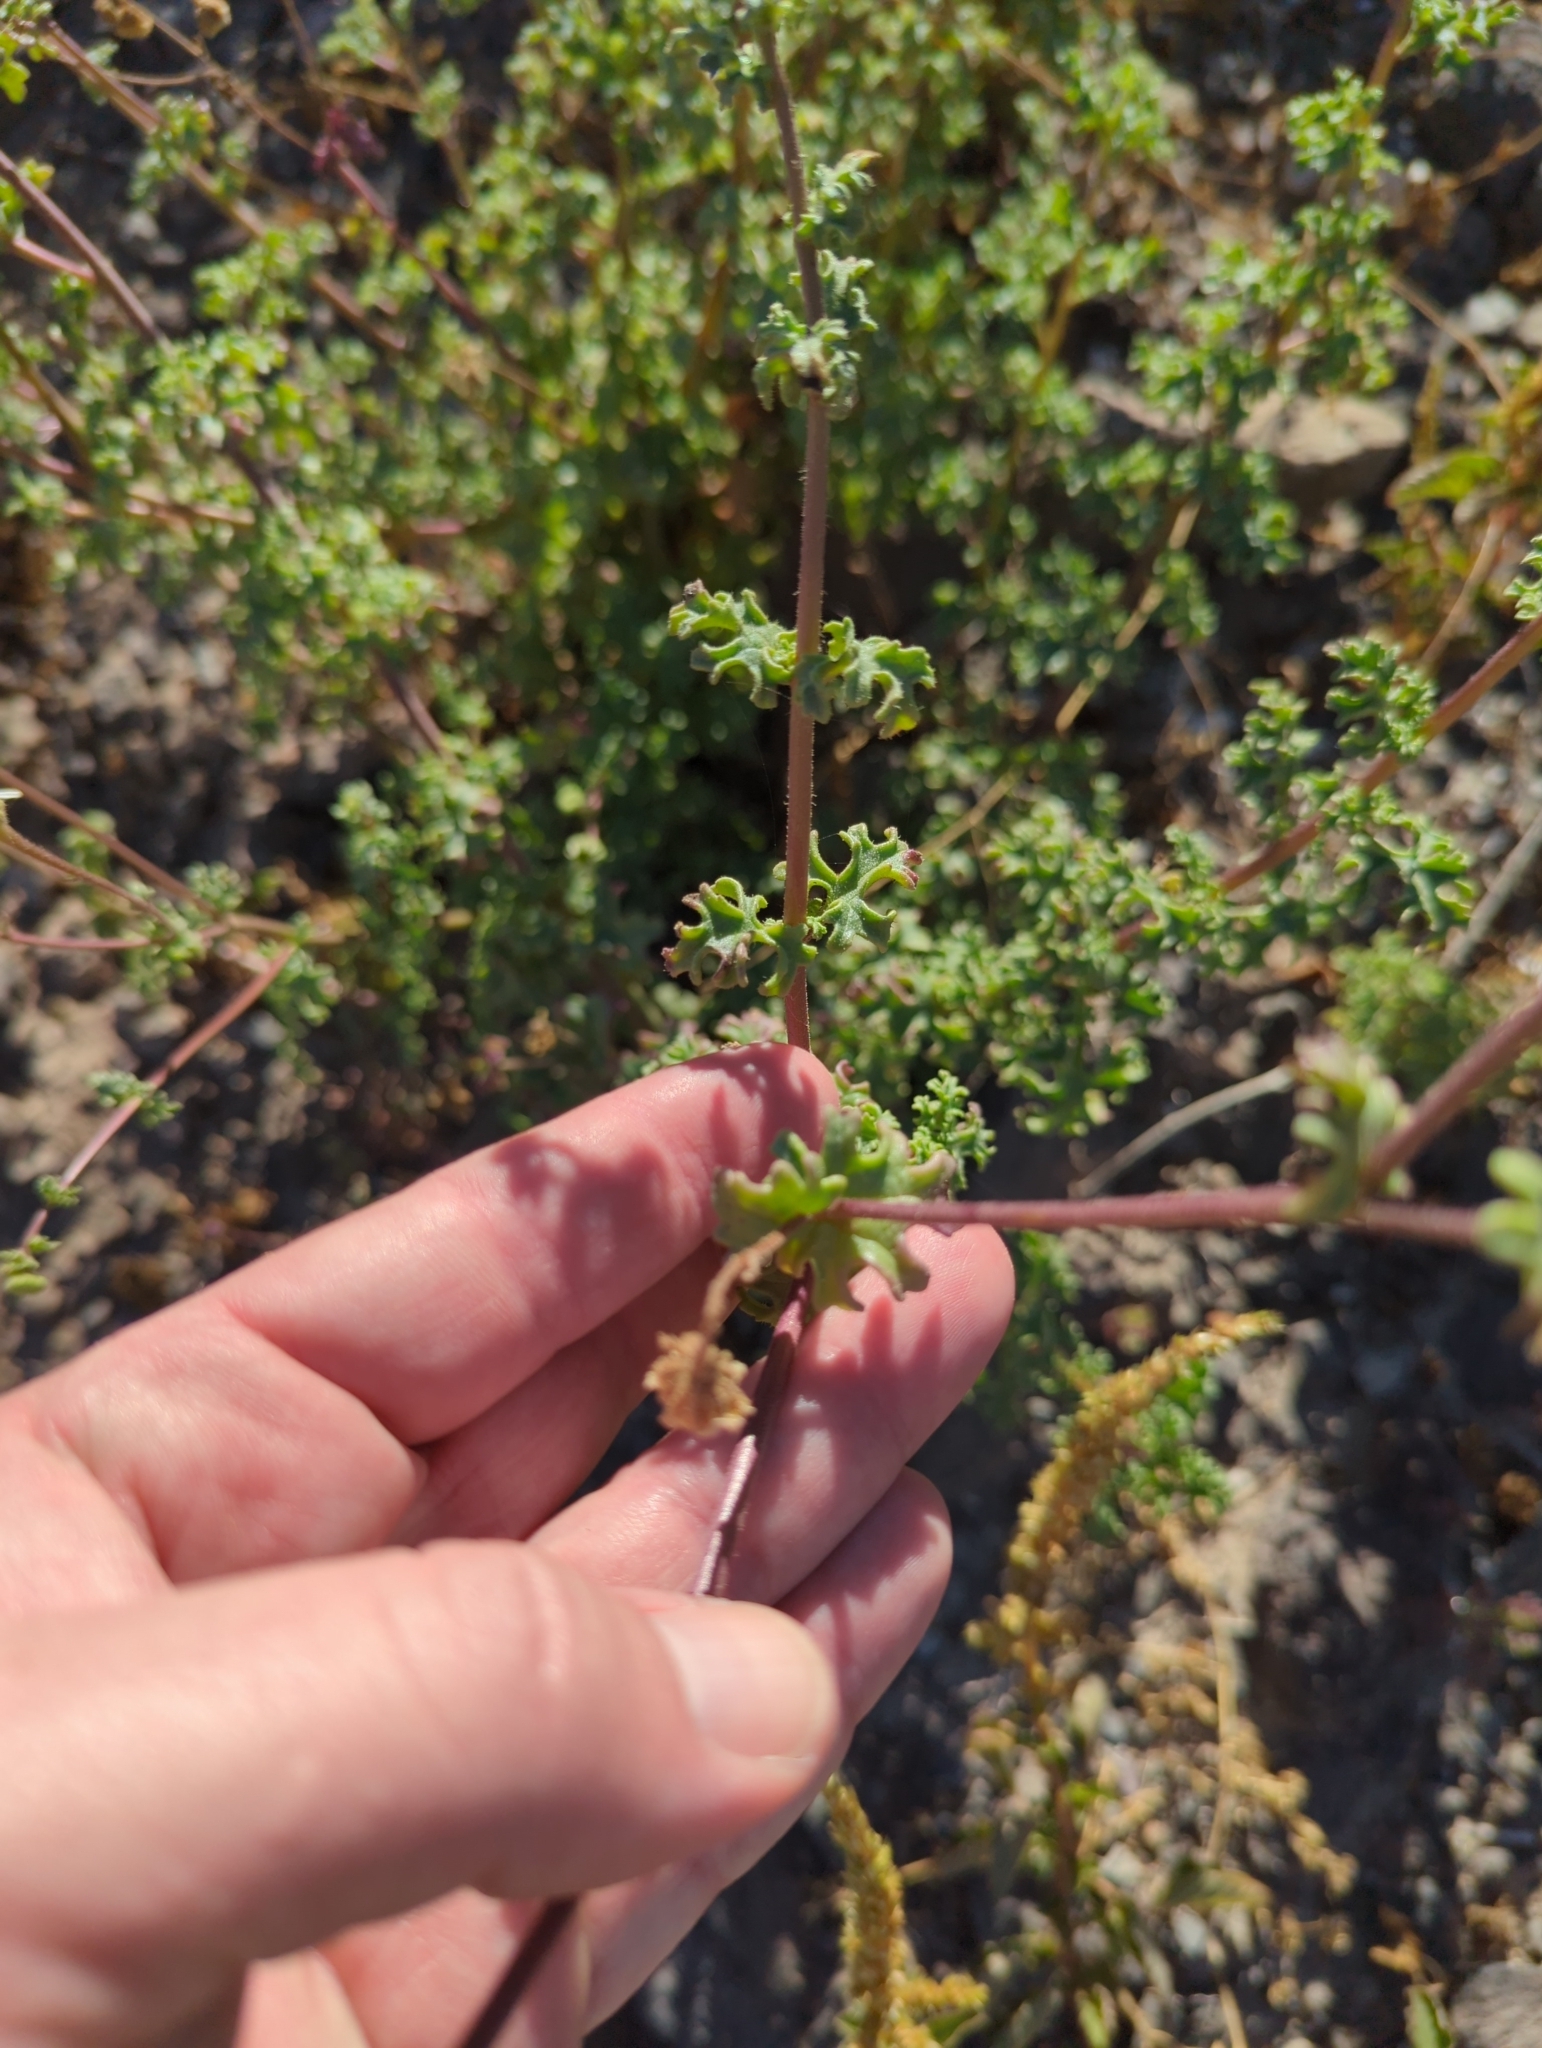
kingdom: Plantae
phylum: Tracheophyta
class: Magnoliopsida
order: Asterales
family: Asteraceae
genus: Perityle
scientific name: Perityle crassifolia
